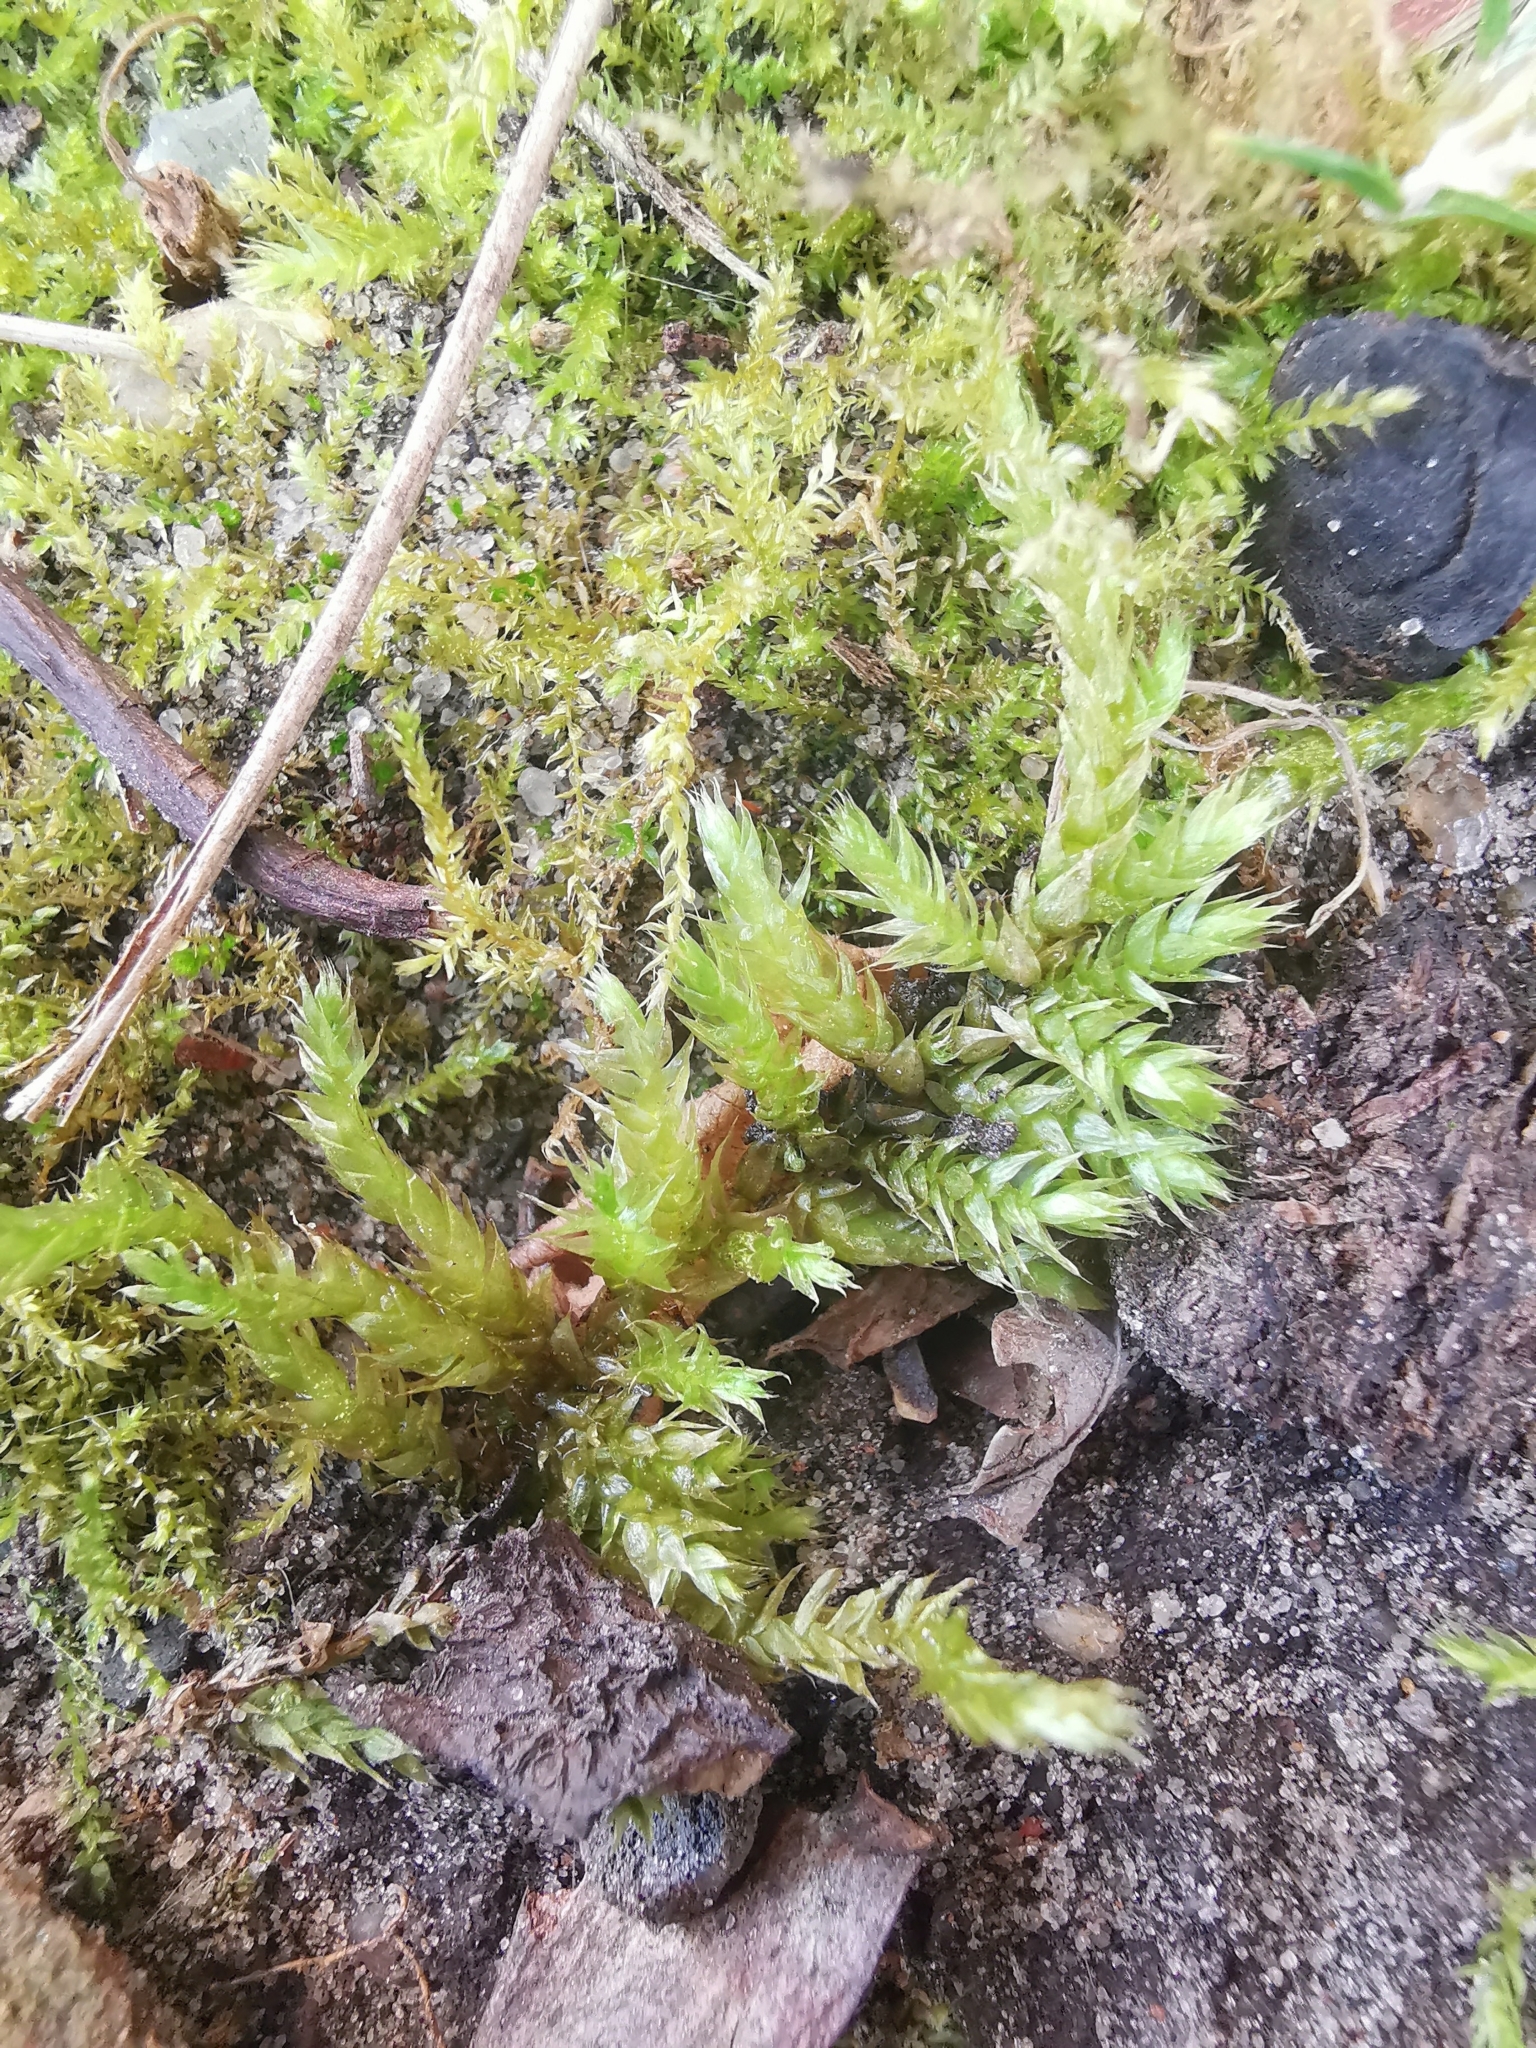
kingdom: Plantae
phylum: Bryophyta
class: Bryopsida
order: Hypnales
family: Brachytheciaceae
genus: Brachythecium
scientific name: Brachythecium rutabulum
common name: Rough-stalked feather-moss
